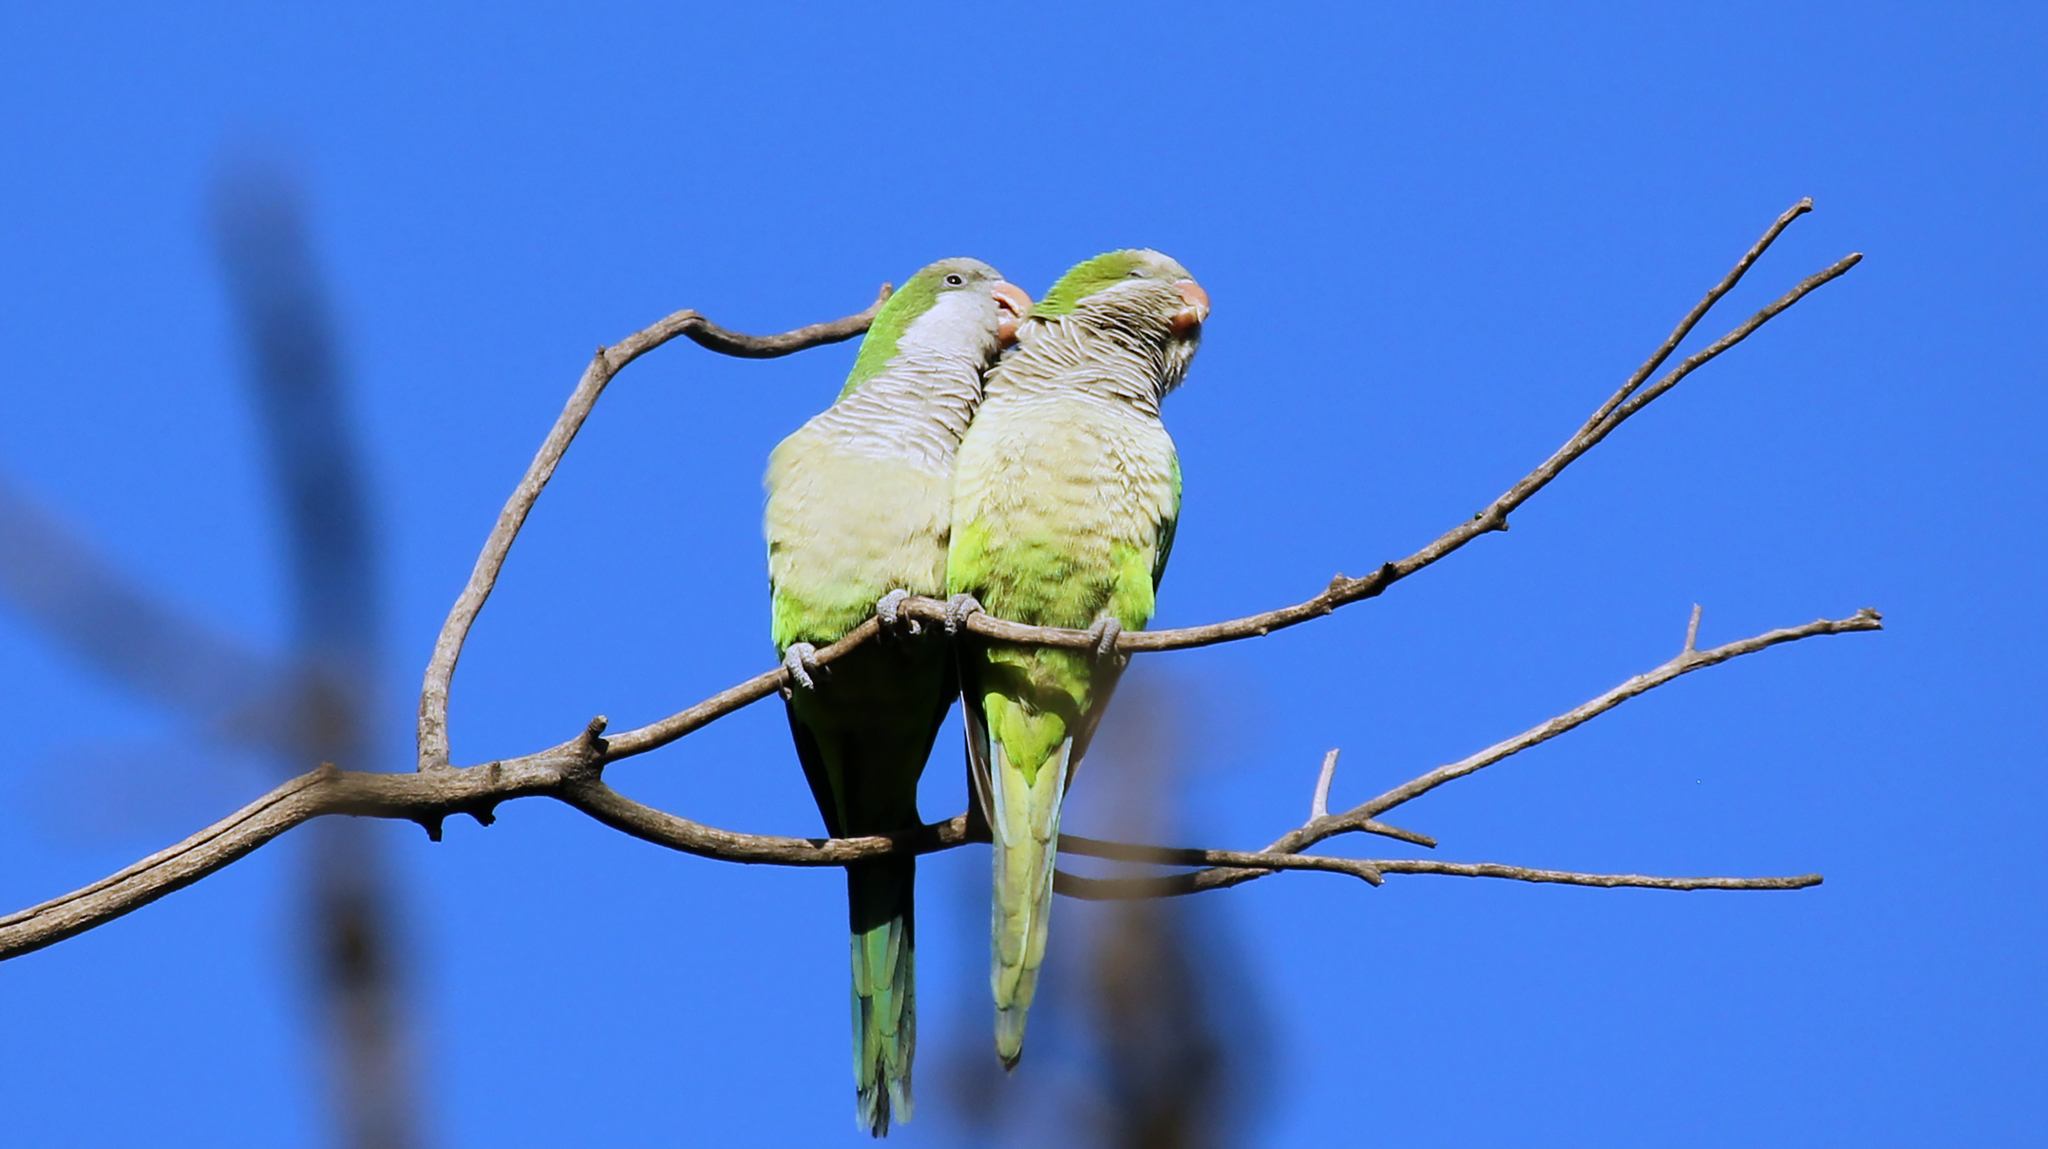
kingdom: Animalia
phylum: Chordata
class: Aves
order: Psittaciformes
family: Psittacidae
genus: Myiopsitta
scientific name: Myiopsitta monachus
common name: Monk parakeet
